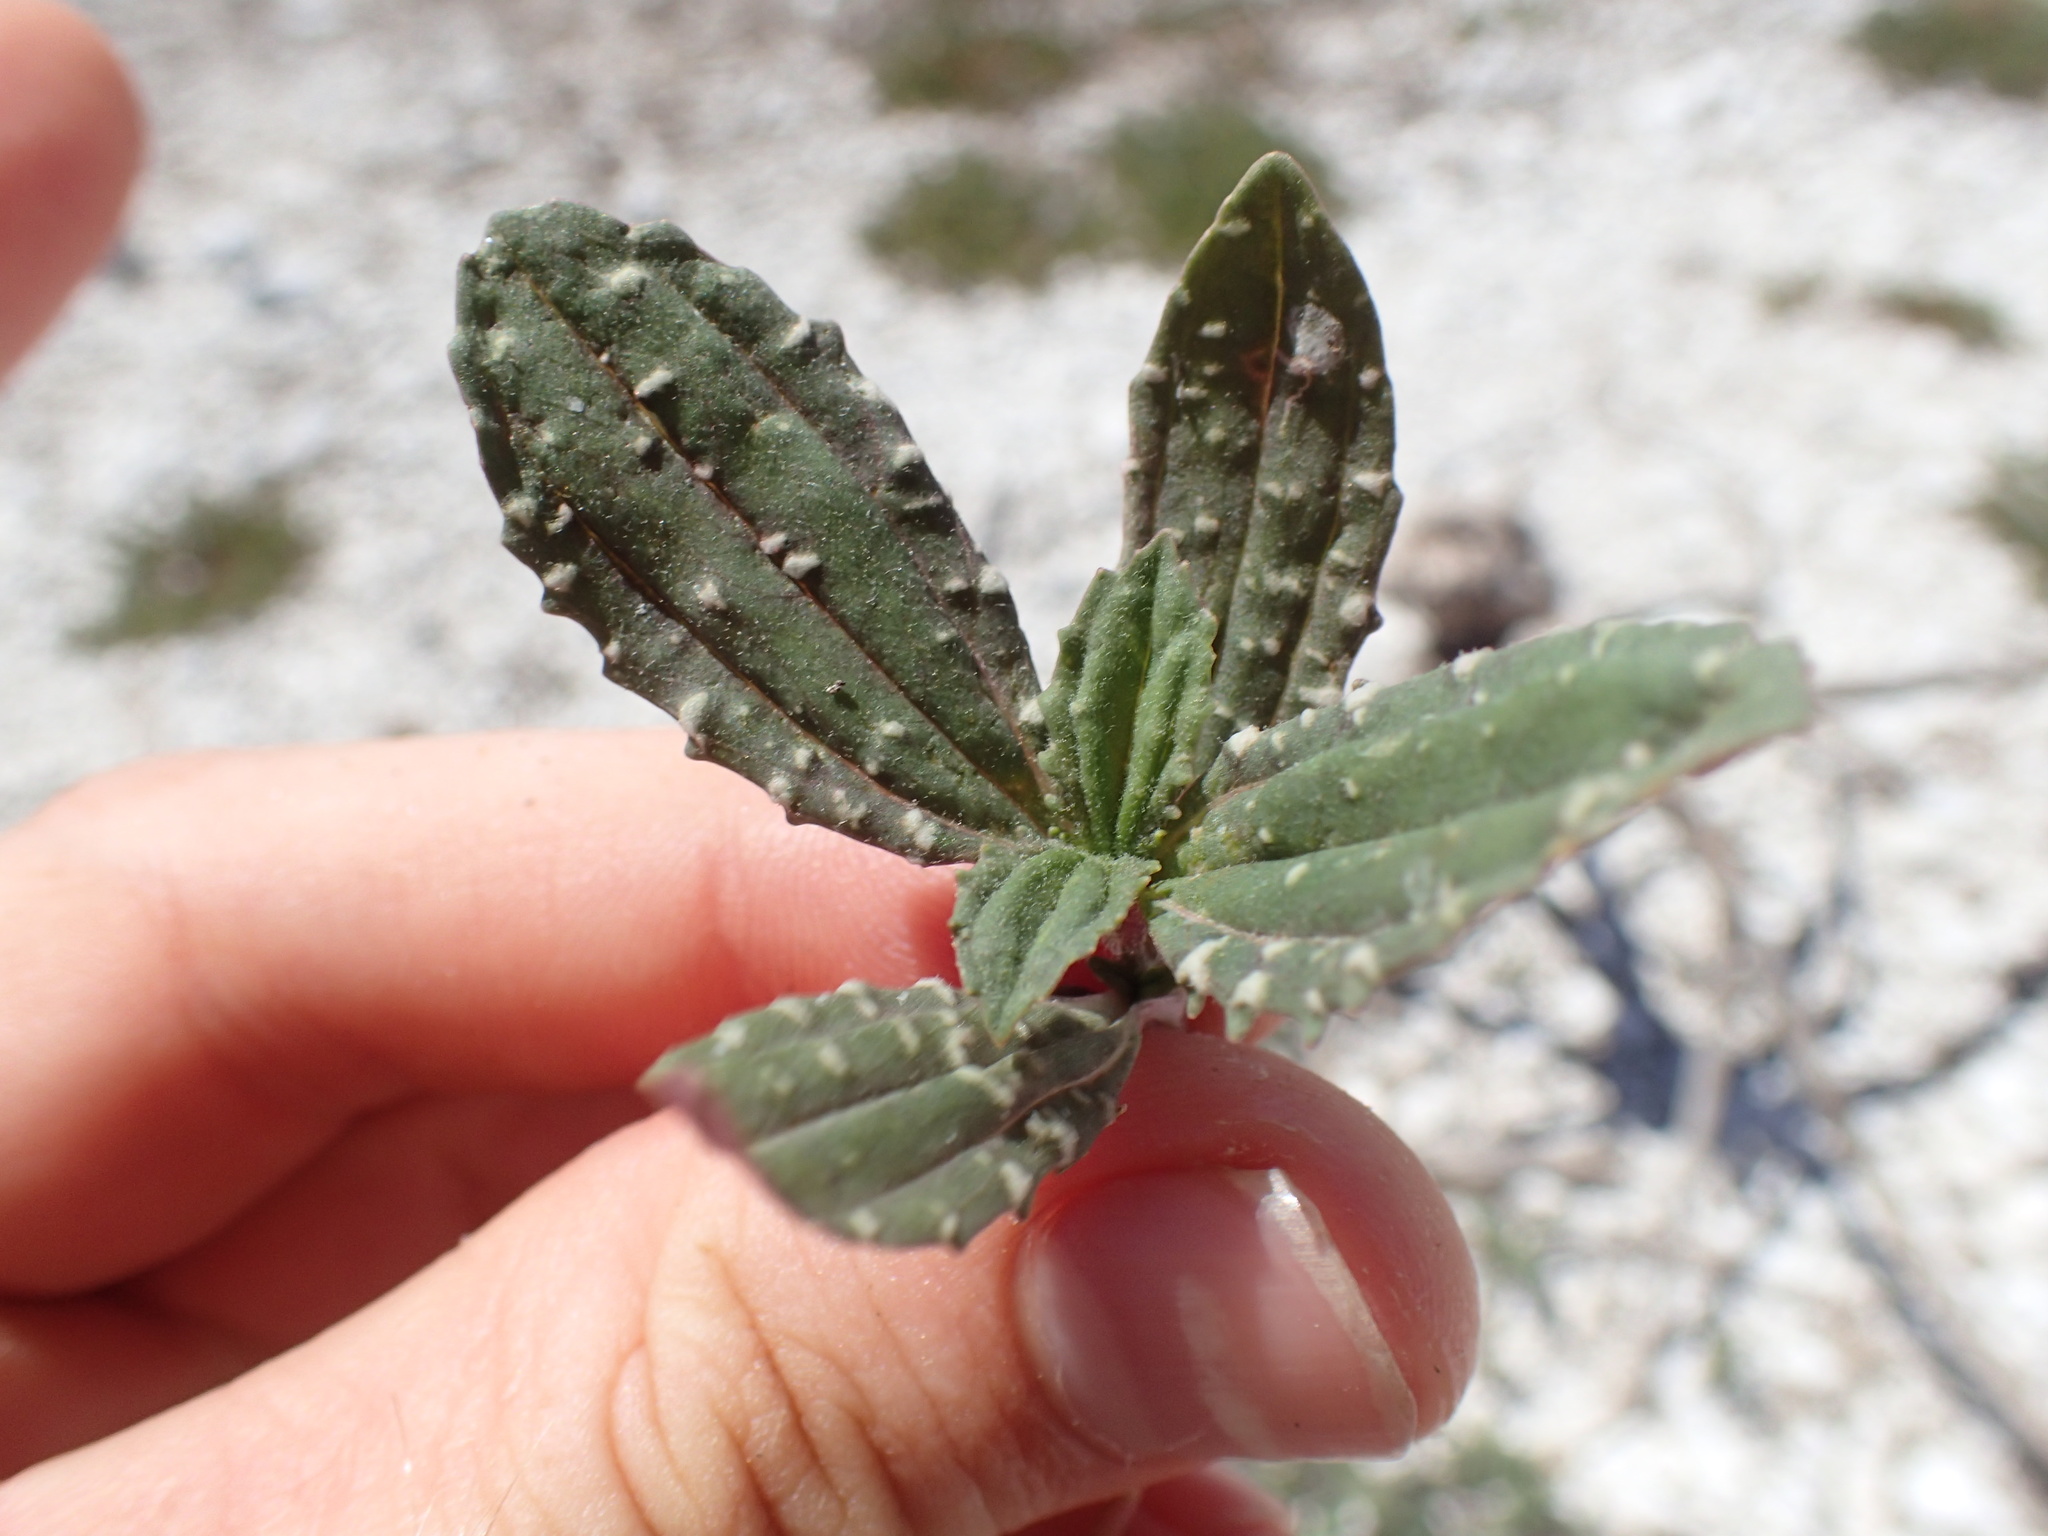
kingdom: Plantae
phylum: Tracheophyta
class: Magnoliopsida
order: Asterales
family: Asteraceae
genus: Flaveria
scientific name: Flaveria trinervia
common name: Clustered yellowtops
